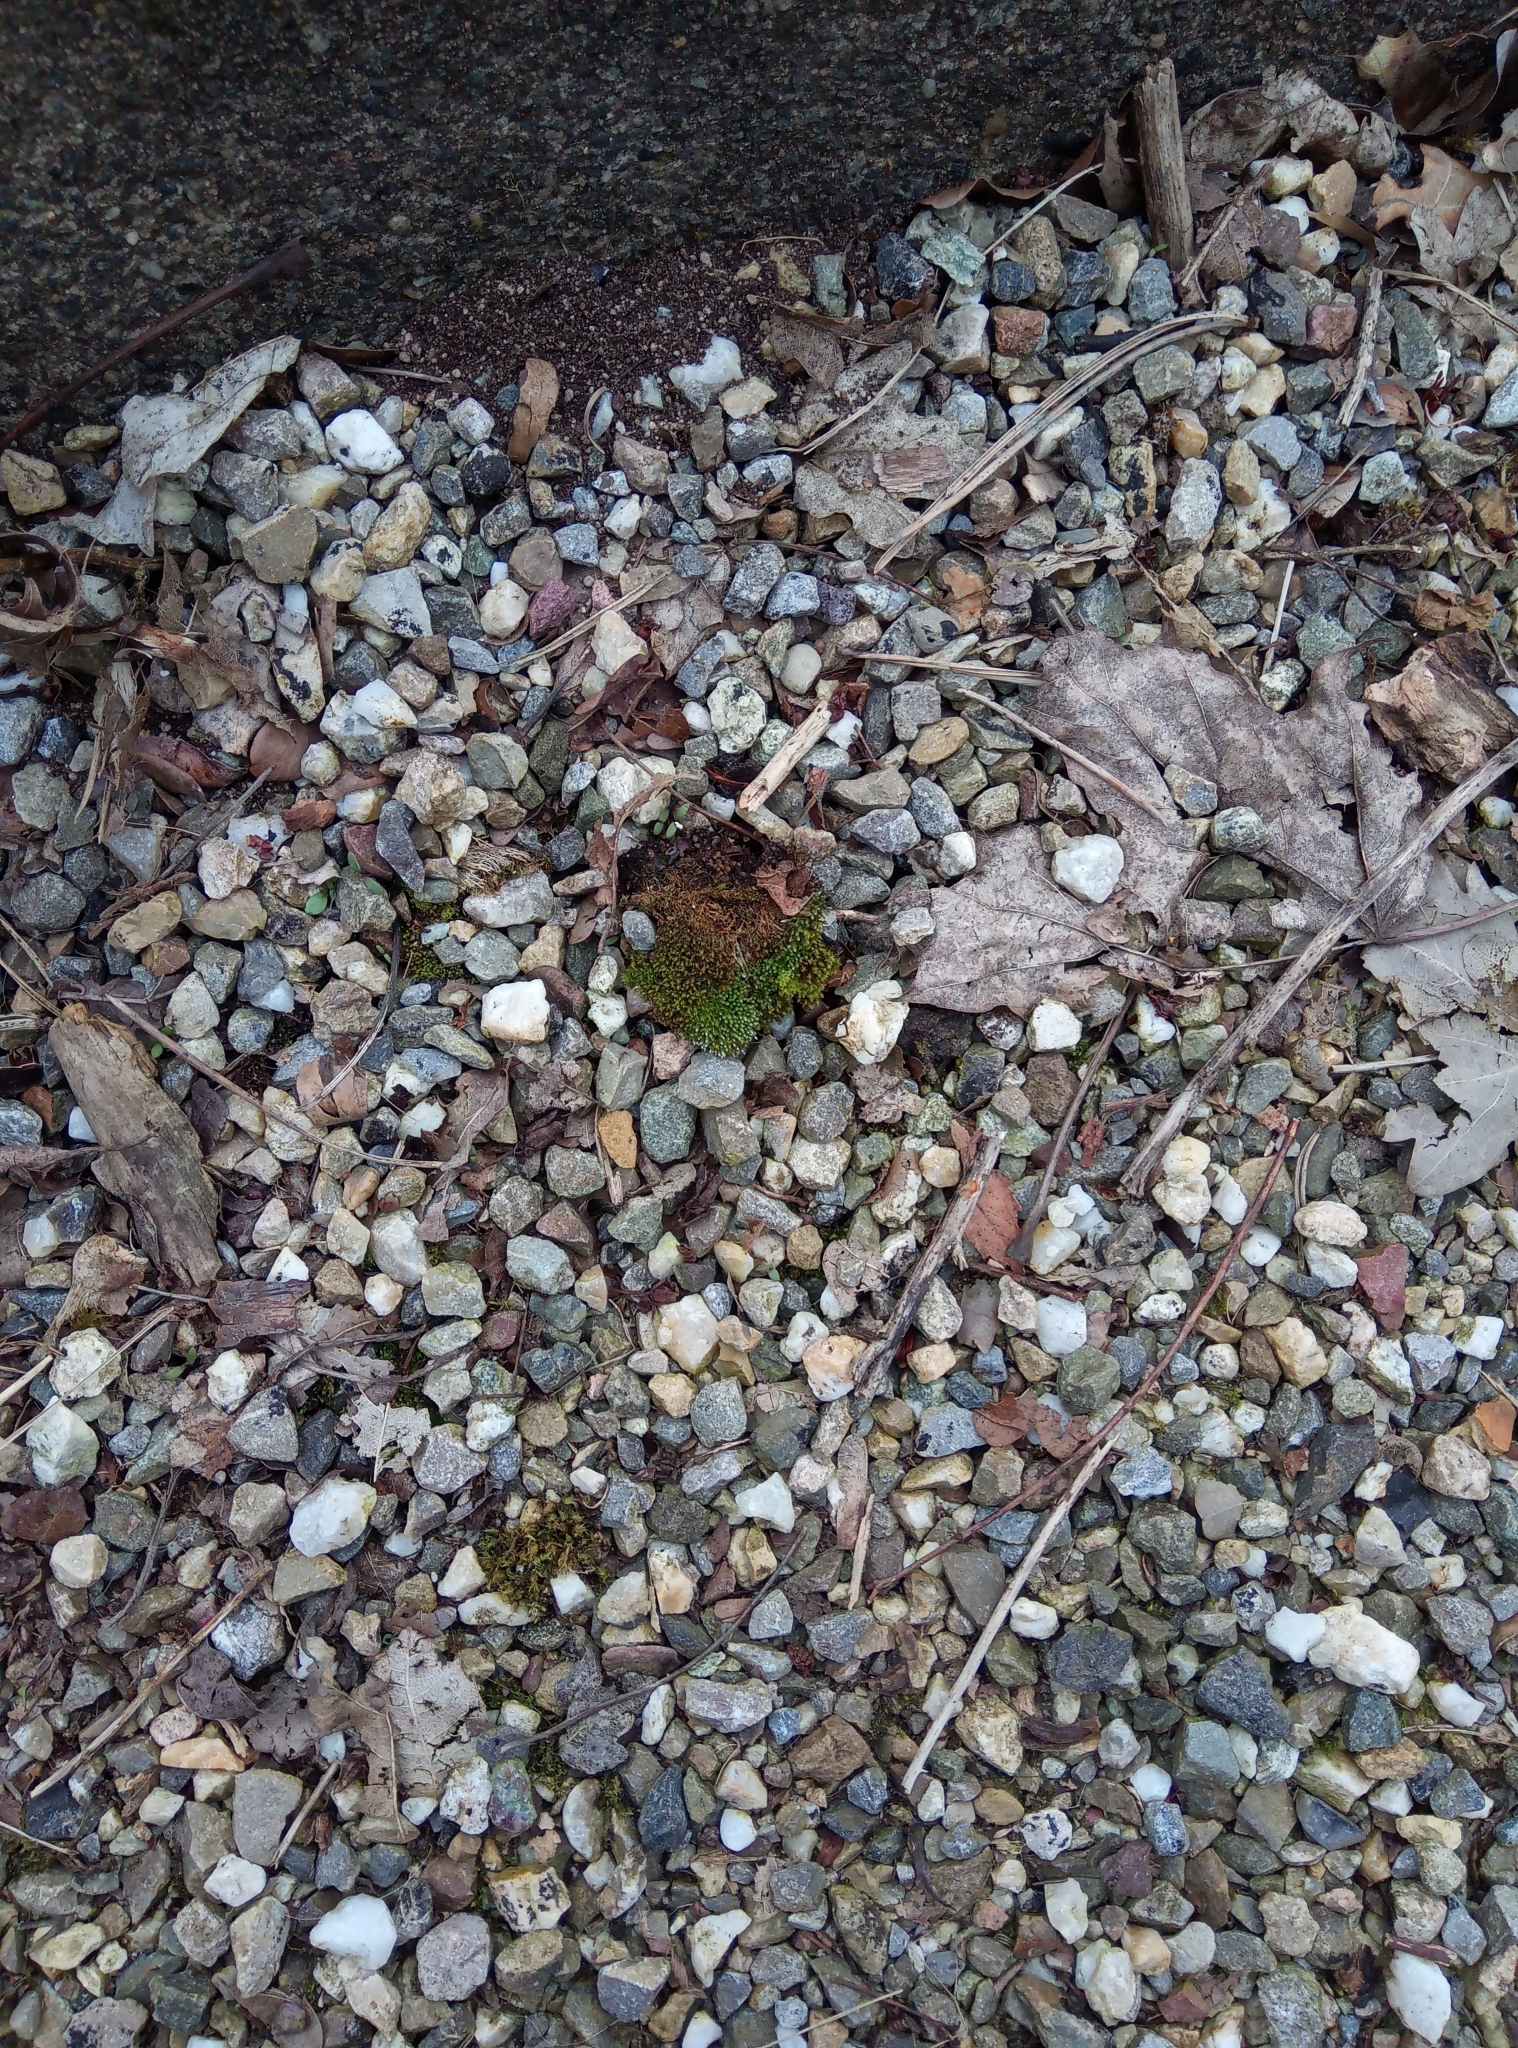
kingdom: Plantae
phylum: Bryophyta
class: Bryopsida
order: Bryales
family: Bryaceae
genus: Bryum
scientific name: Bryum argenteum
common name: Silver-moss
